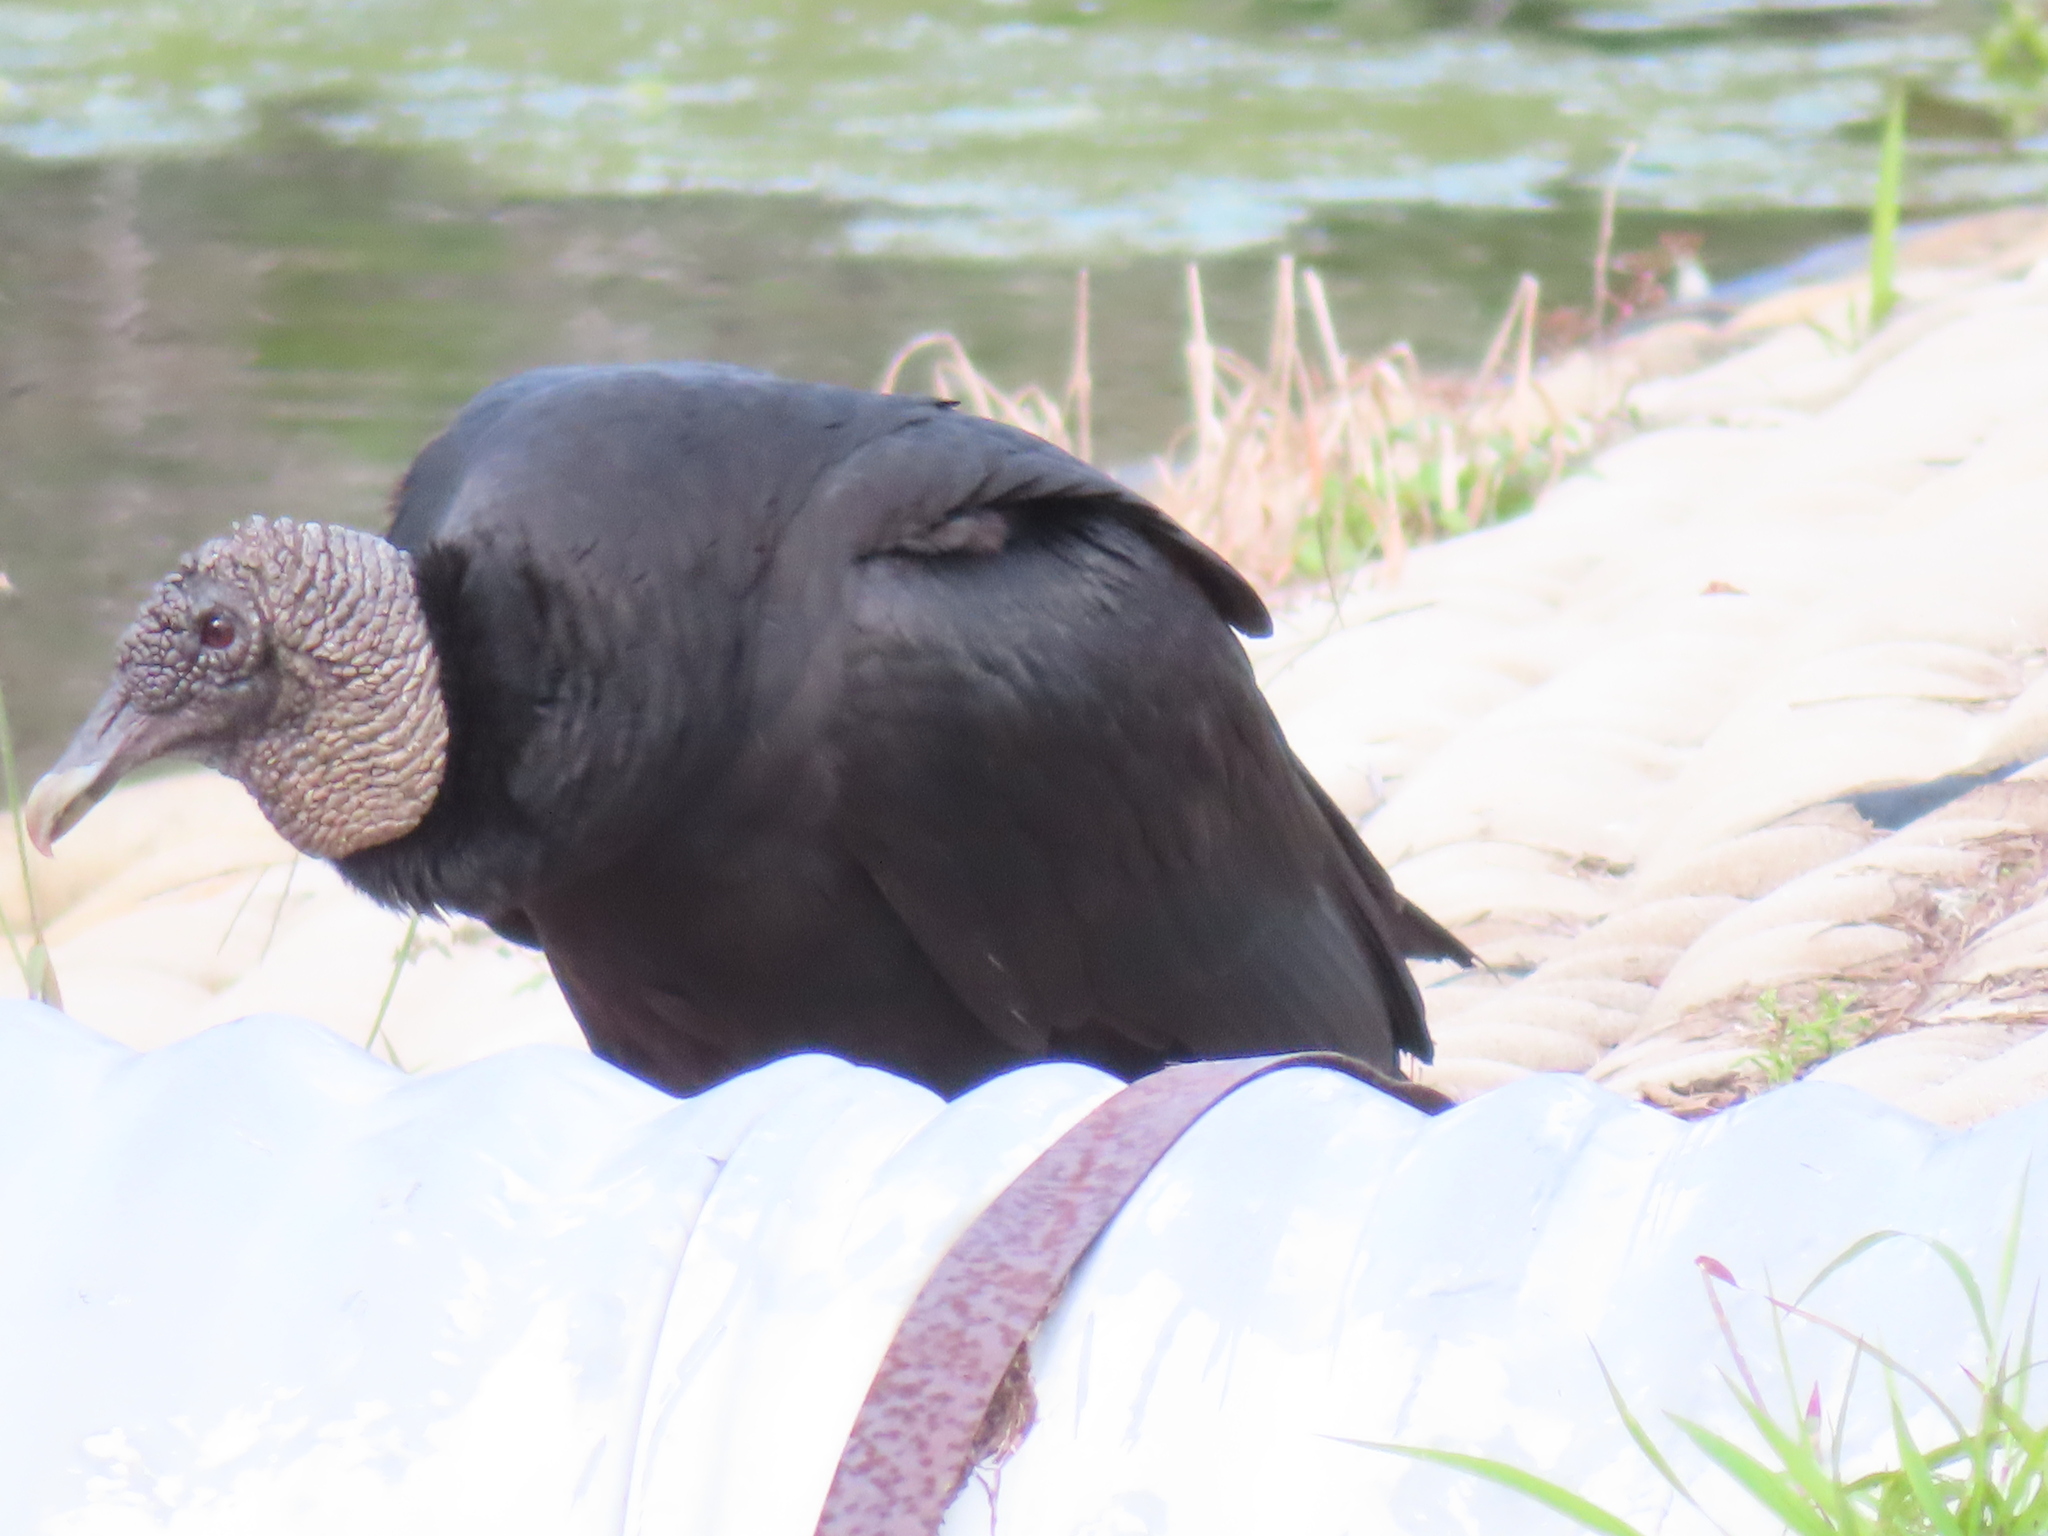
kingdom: Animalia
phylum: Chordata
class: Aves
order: Accipitriformes
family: Cathartidae
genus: Coragyps
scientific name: Coragyps atratus
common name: Black vulture
